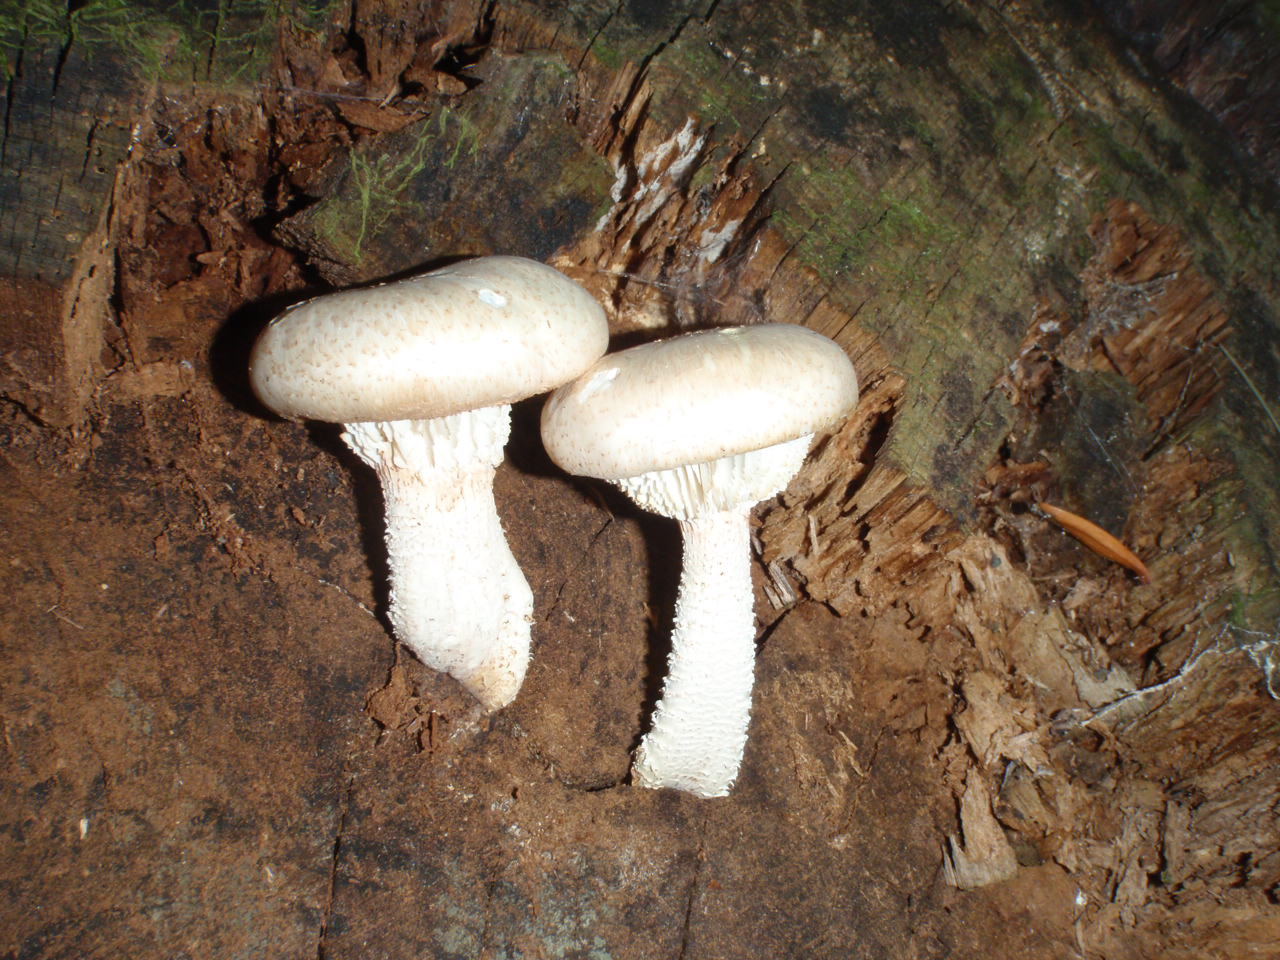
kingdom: Fungi
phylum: Basidiomycota
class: Agaricomycetes
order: Gloeophyllales
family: Gloeophyllaceae
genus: Neolentinus
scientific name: Neolentinus lepideus
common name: Scaly sawgill
